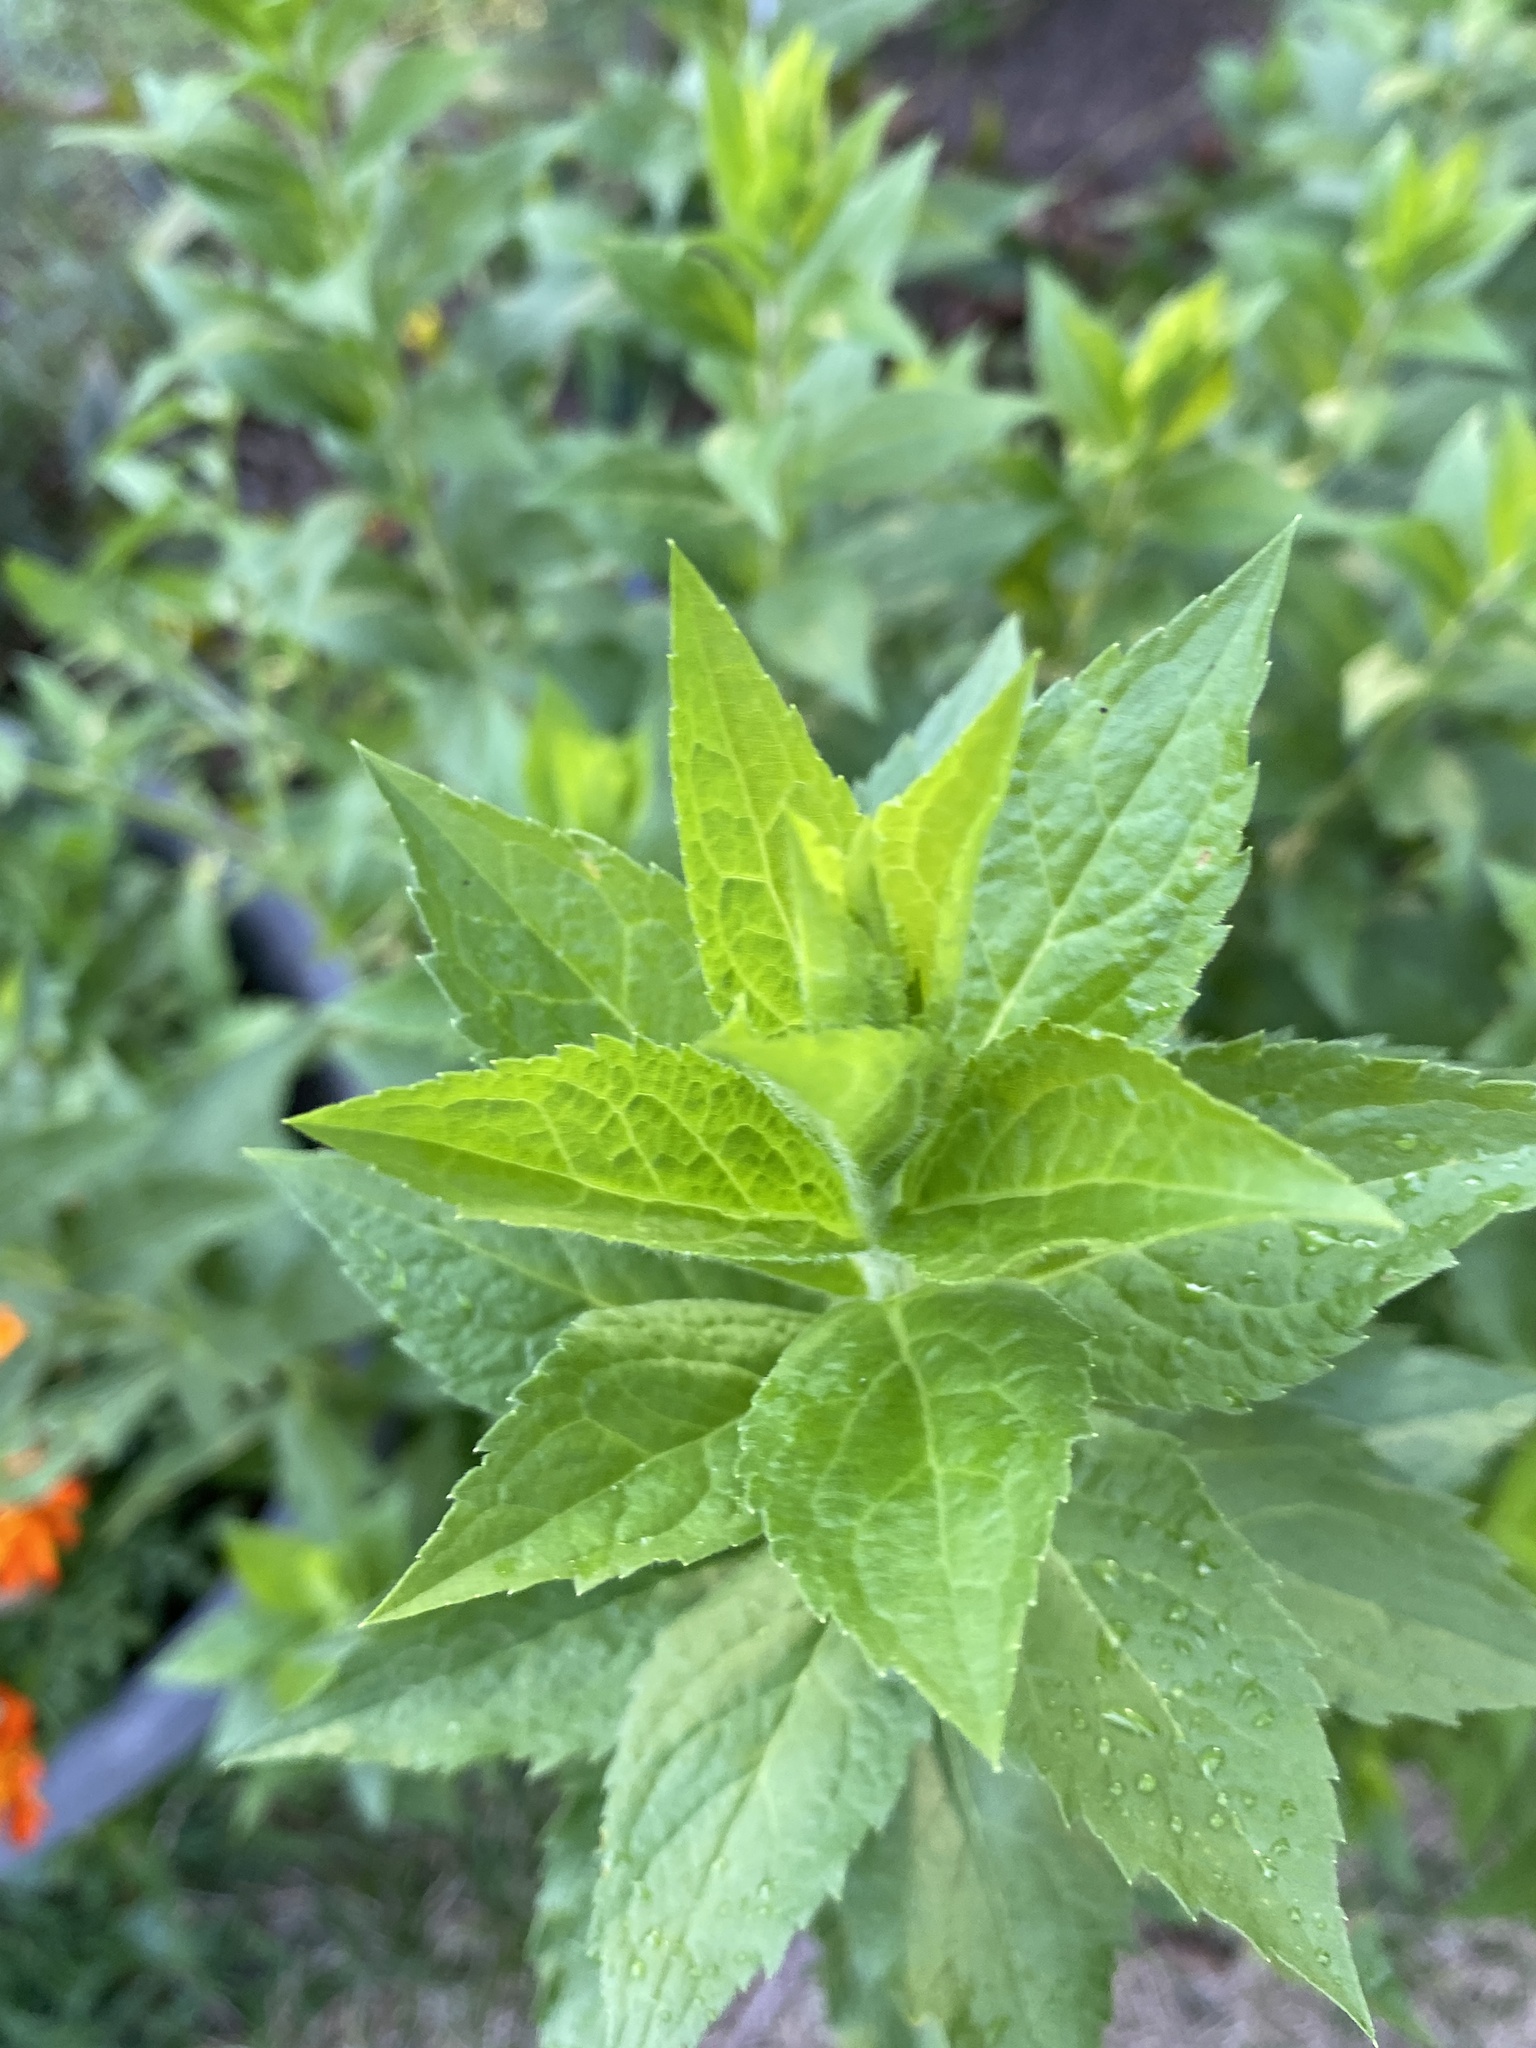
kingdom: Plantae
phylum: Tracheophyta
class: Magnoliopsida
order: Asterales
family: Asteraceae
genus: Solidago
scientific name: Solidago rugosa
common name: Rough-stemmed goldenrod
